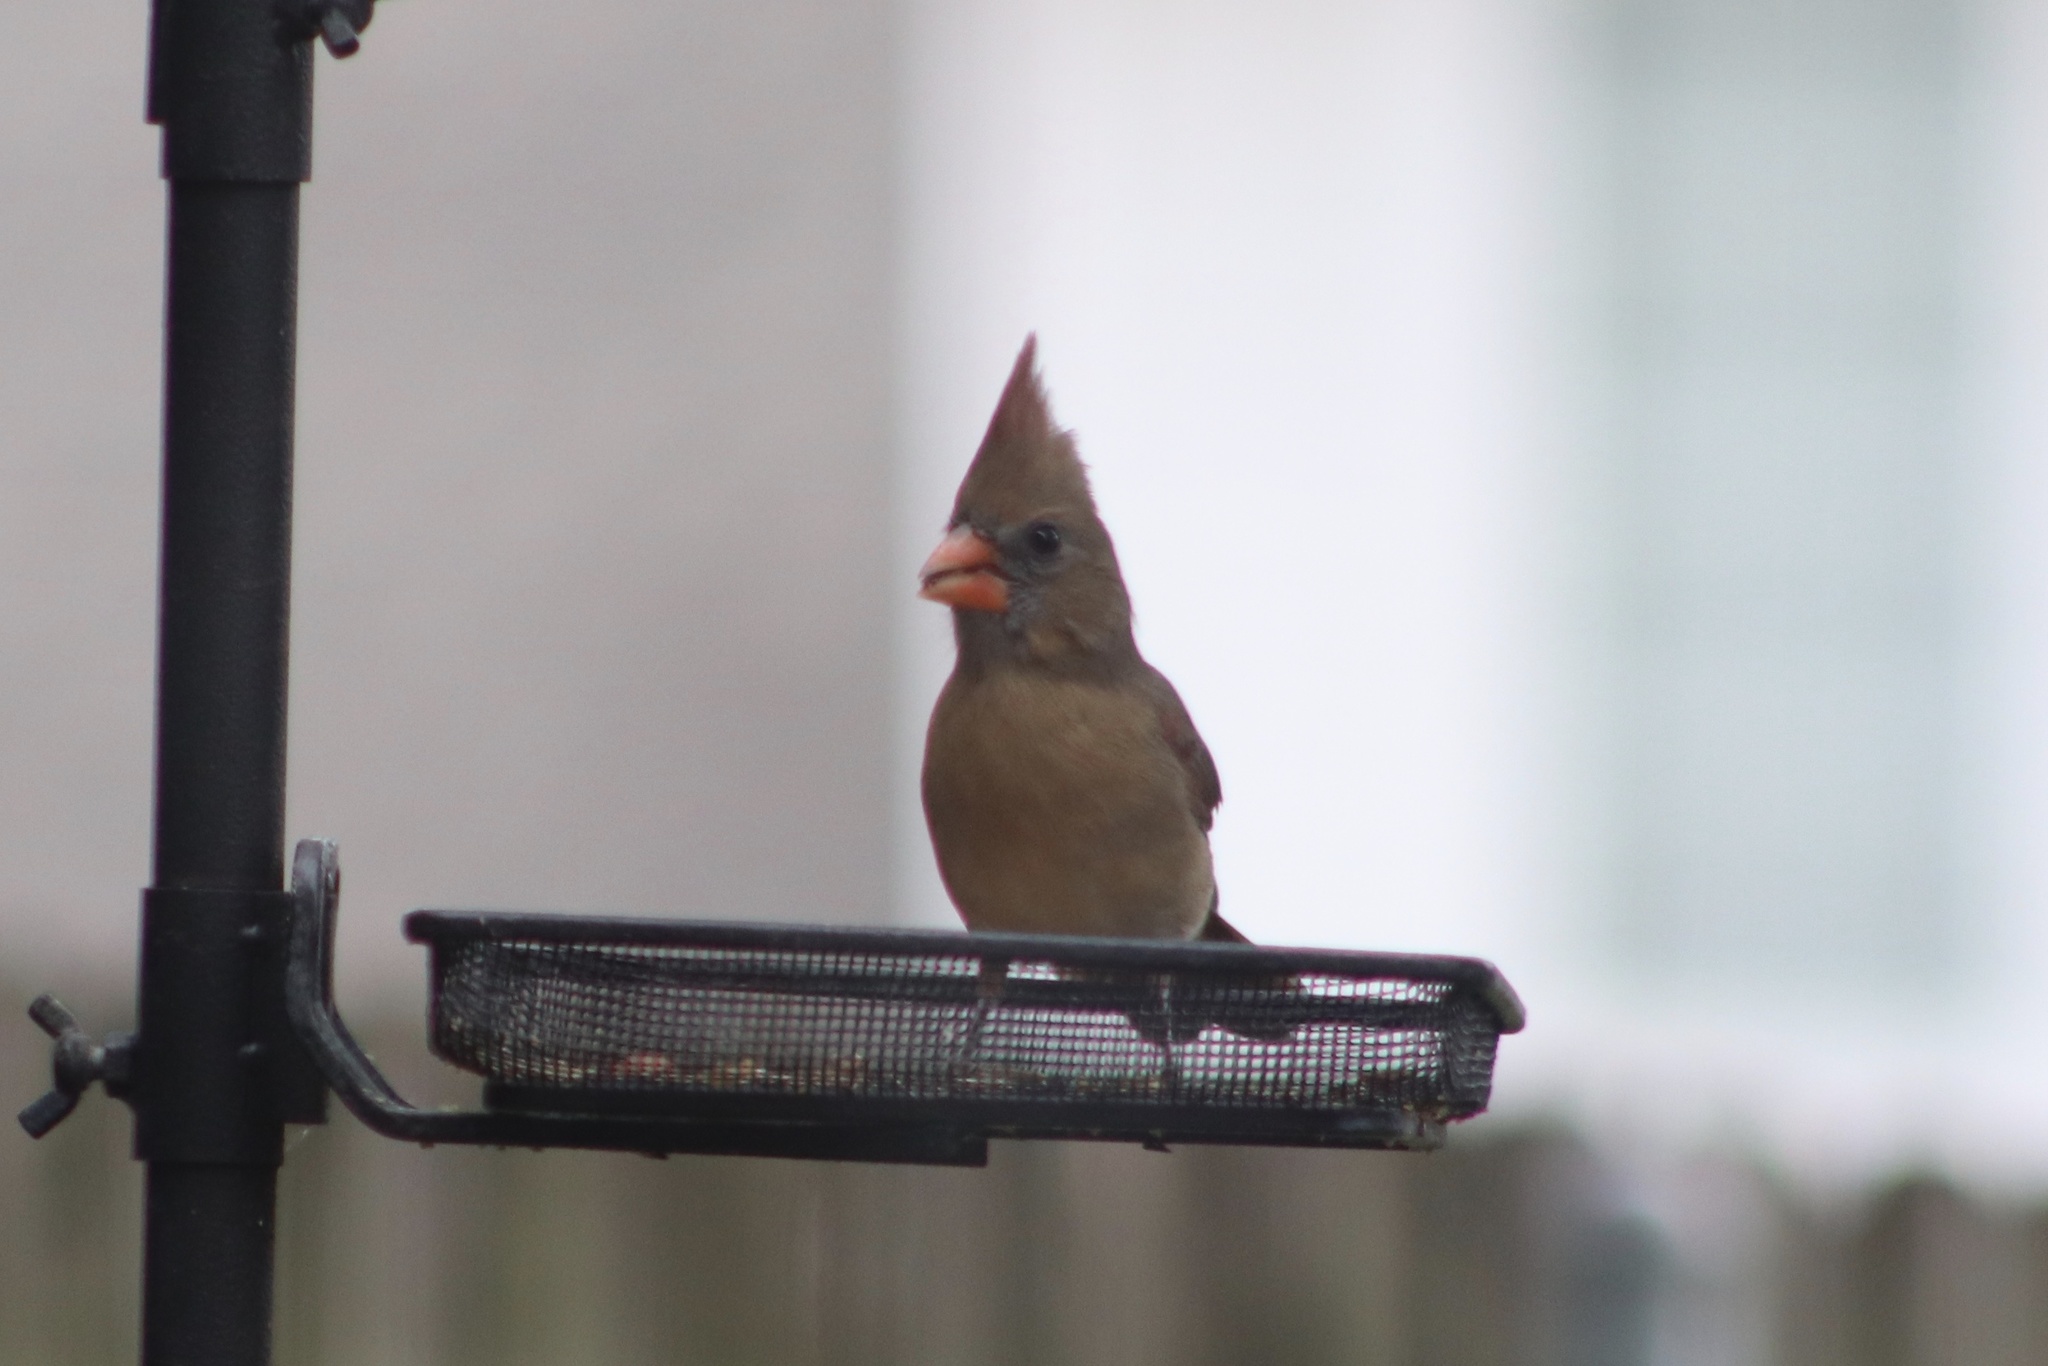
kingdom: Animalia
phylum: Chordata
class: Aves
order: Passeriformes
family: Cardinalidae
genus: Cardinalis
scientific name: Cardinalis cardinalis
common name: Northern cardinal
